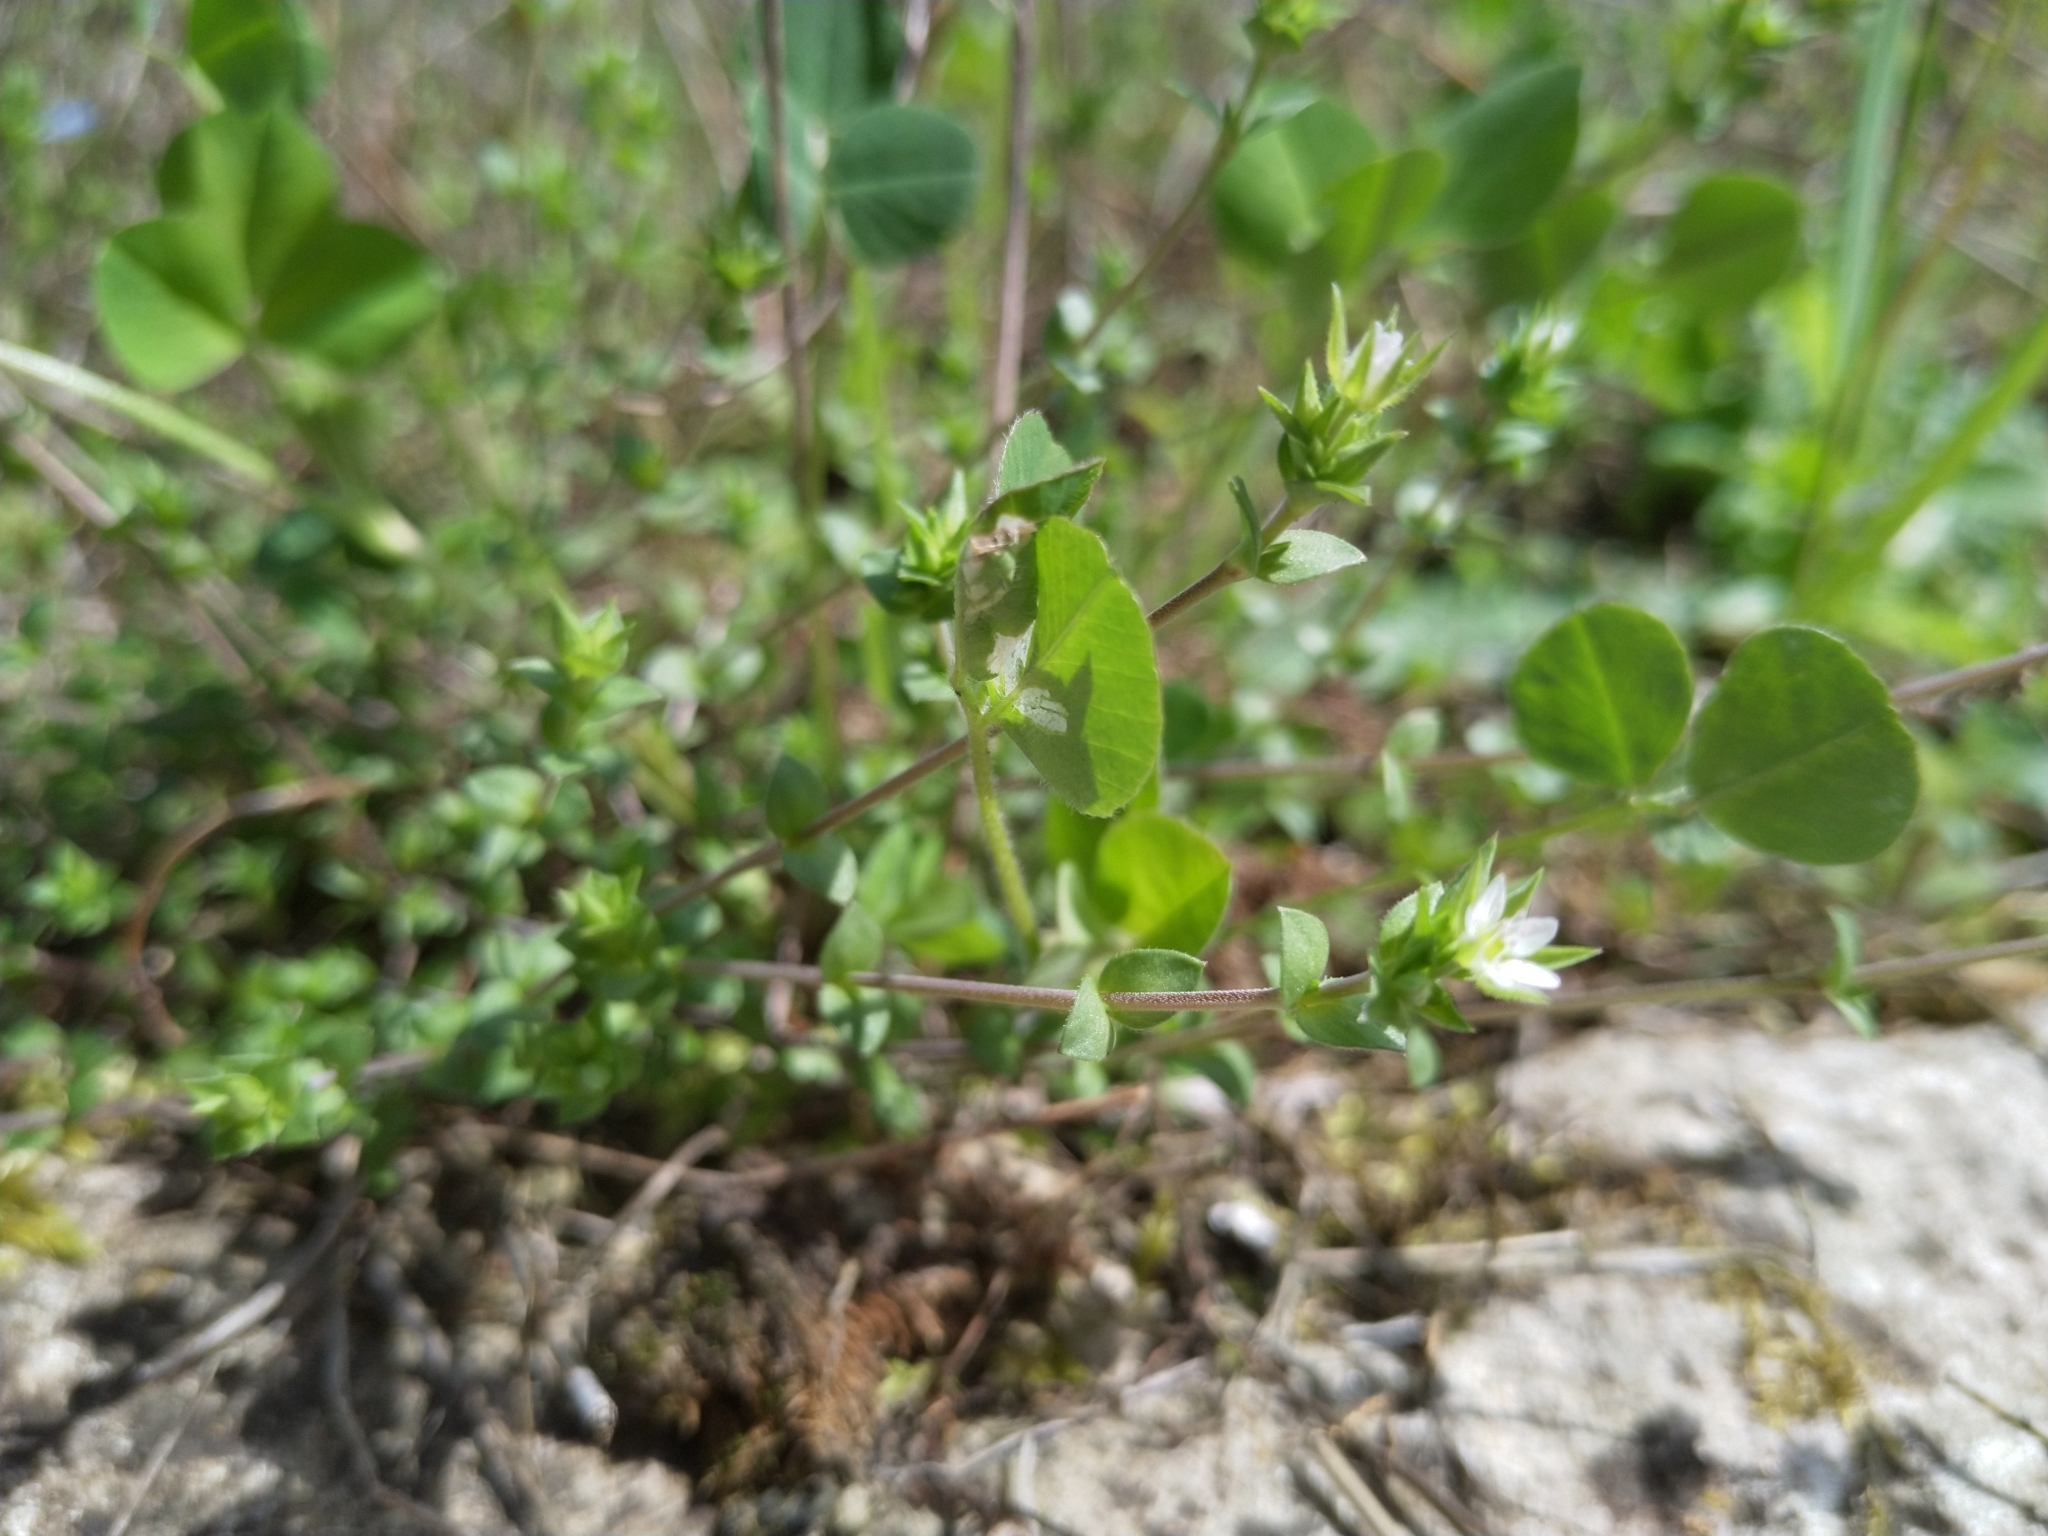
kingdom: Plantae
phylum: Tracheophyta
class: Magnoliopsida
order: Caryophyllales
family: Caryophyllaceae
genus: Arenaria
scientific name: Arenaria serpyllifolia
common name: Thyme-leaved sandwort
